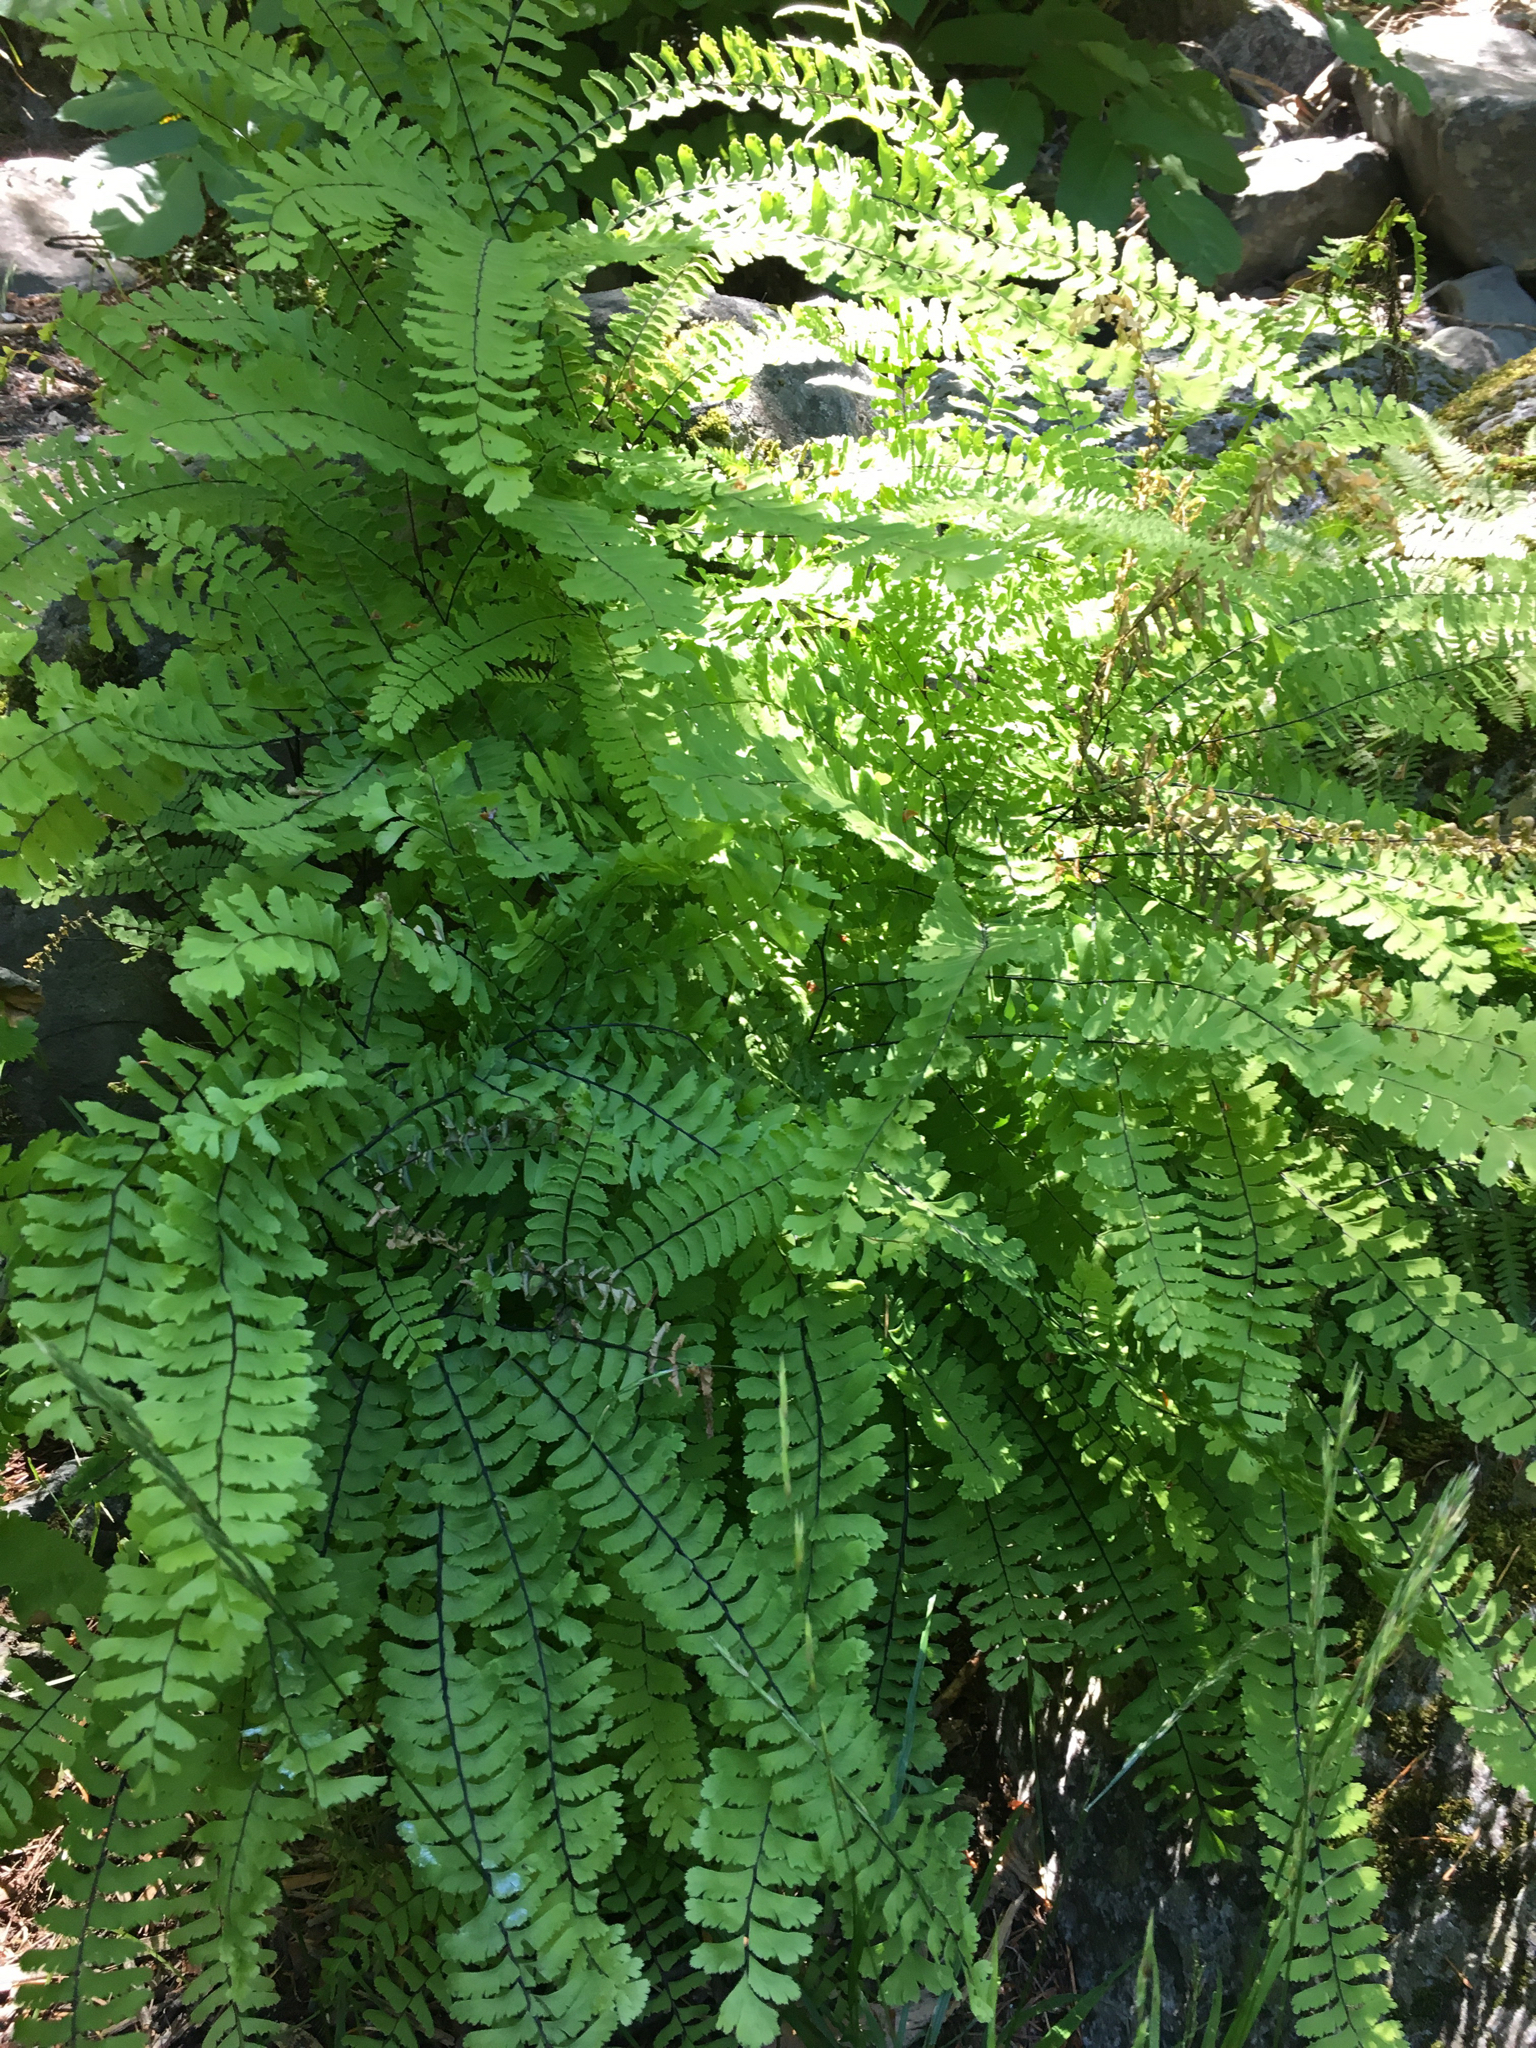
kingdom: Plantae
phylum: Tracheophyta
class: Polypodiopsida
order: Polypodiales
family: Pteridaceae
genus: Adiantum
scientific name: Adiantum aleuticum
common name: Aleutian maidenhair fern
